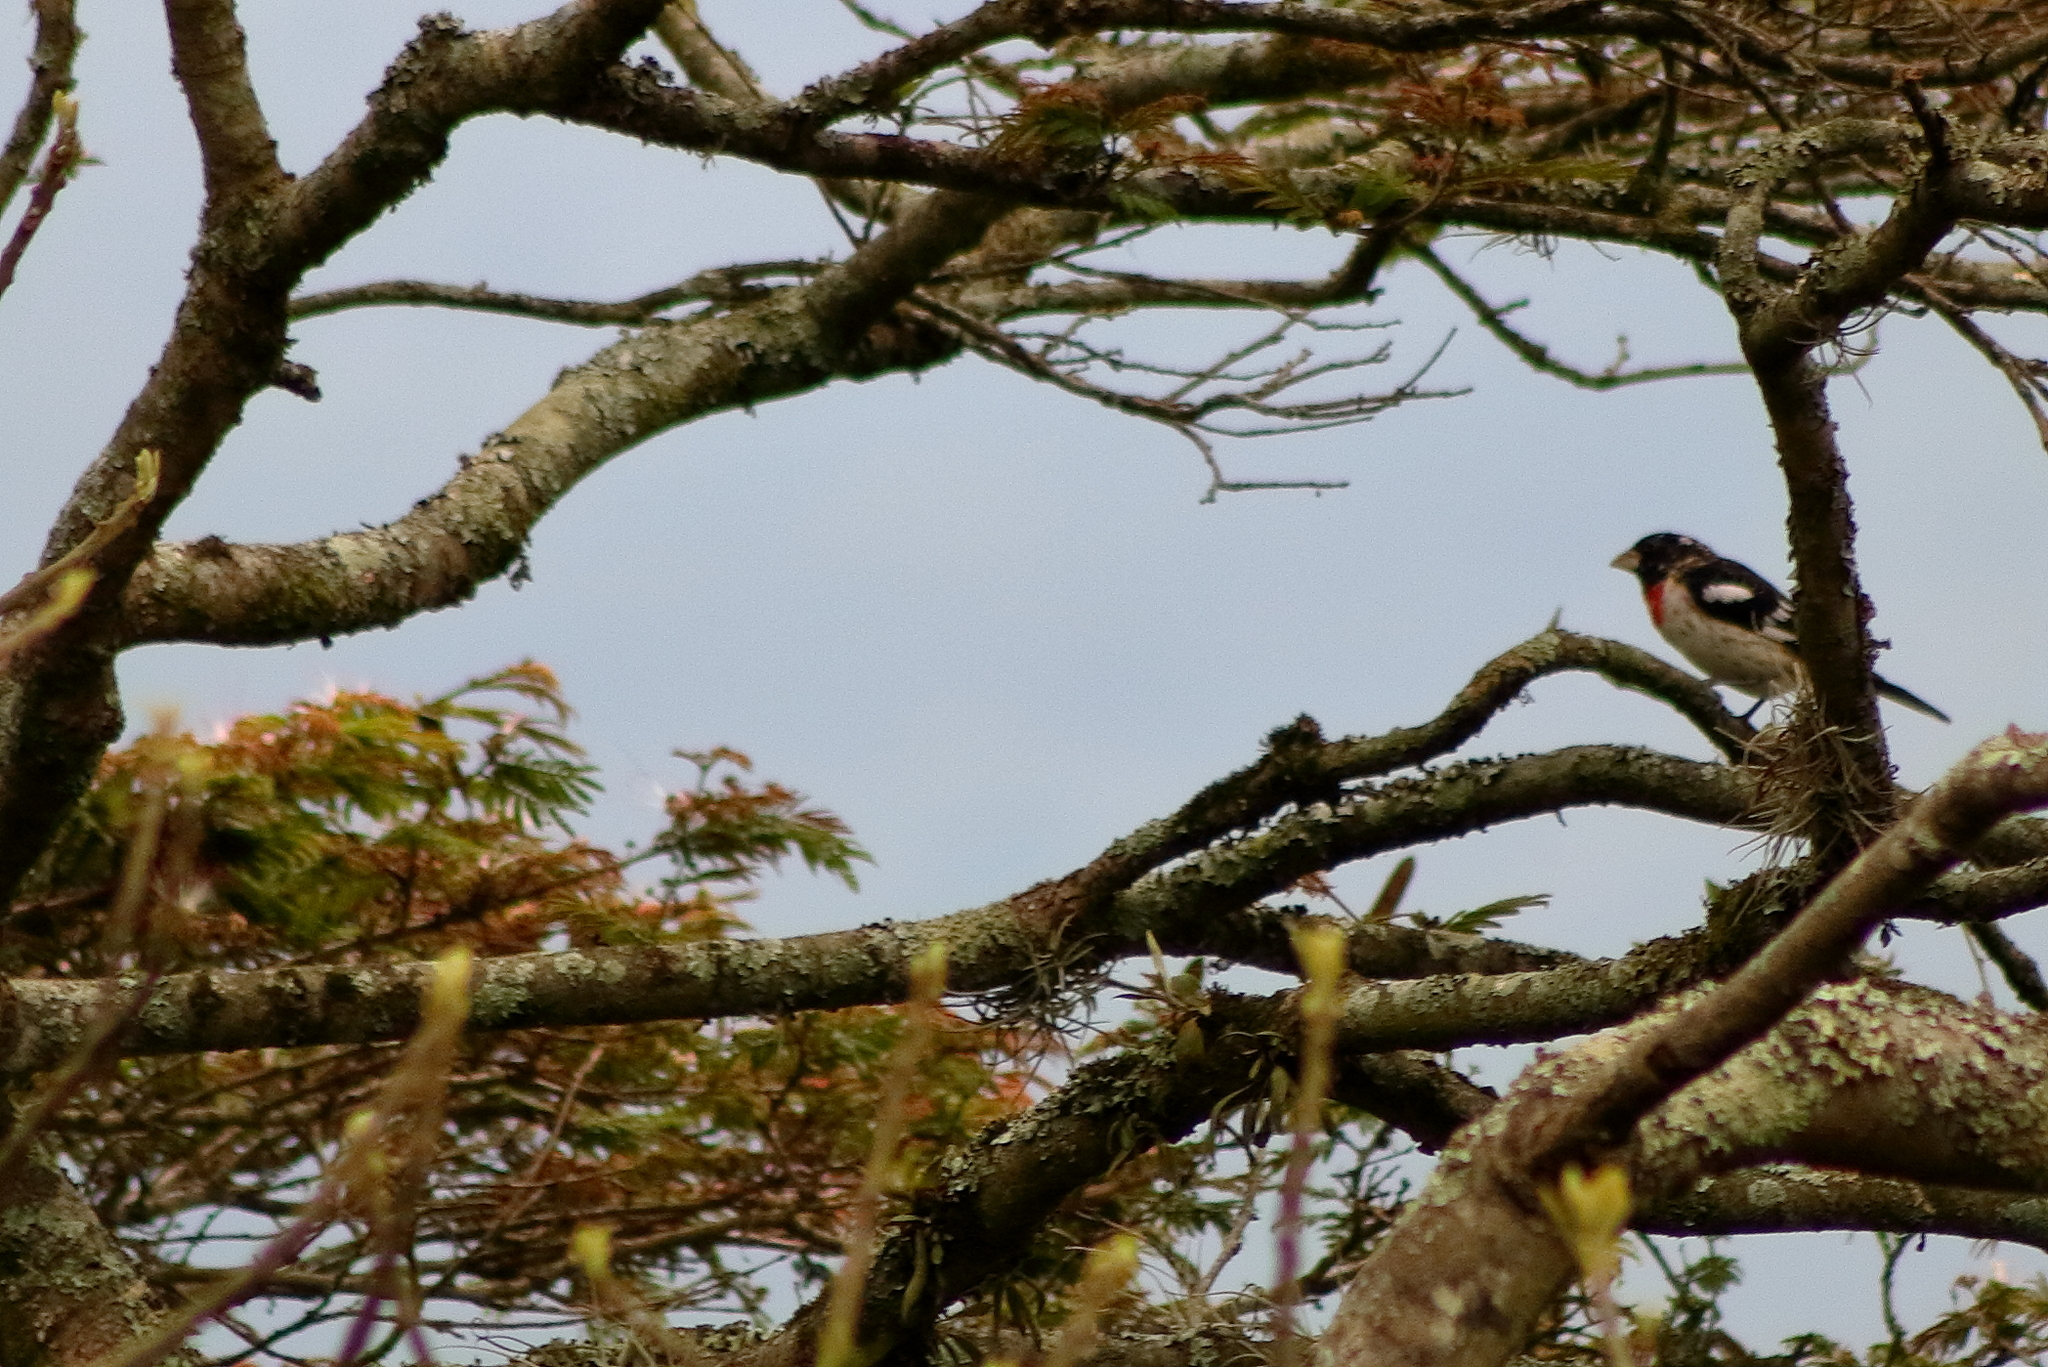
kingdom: Animalia
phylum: Chordata
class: Aves
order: Passeriformes
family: Cardinalidae
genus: Pheucticus
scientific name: Pheucticus ludovicianus
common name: Rose-breasted grosbeak
